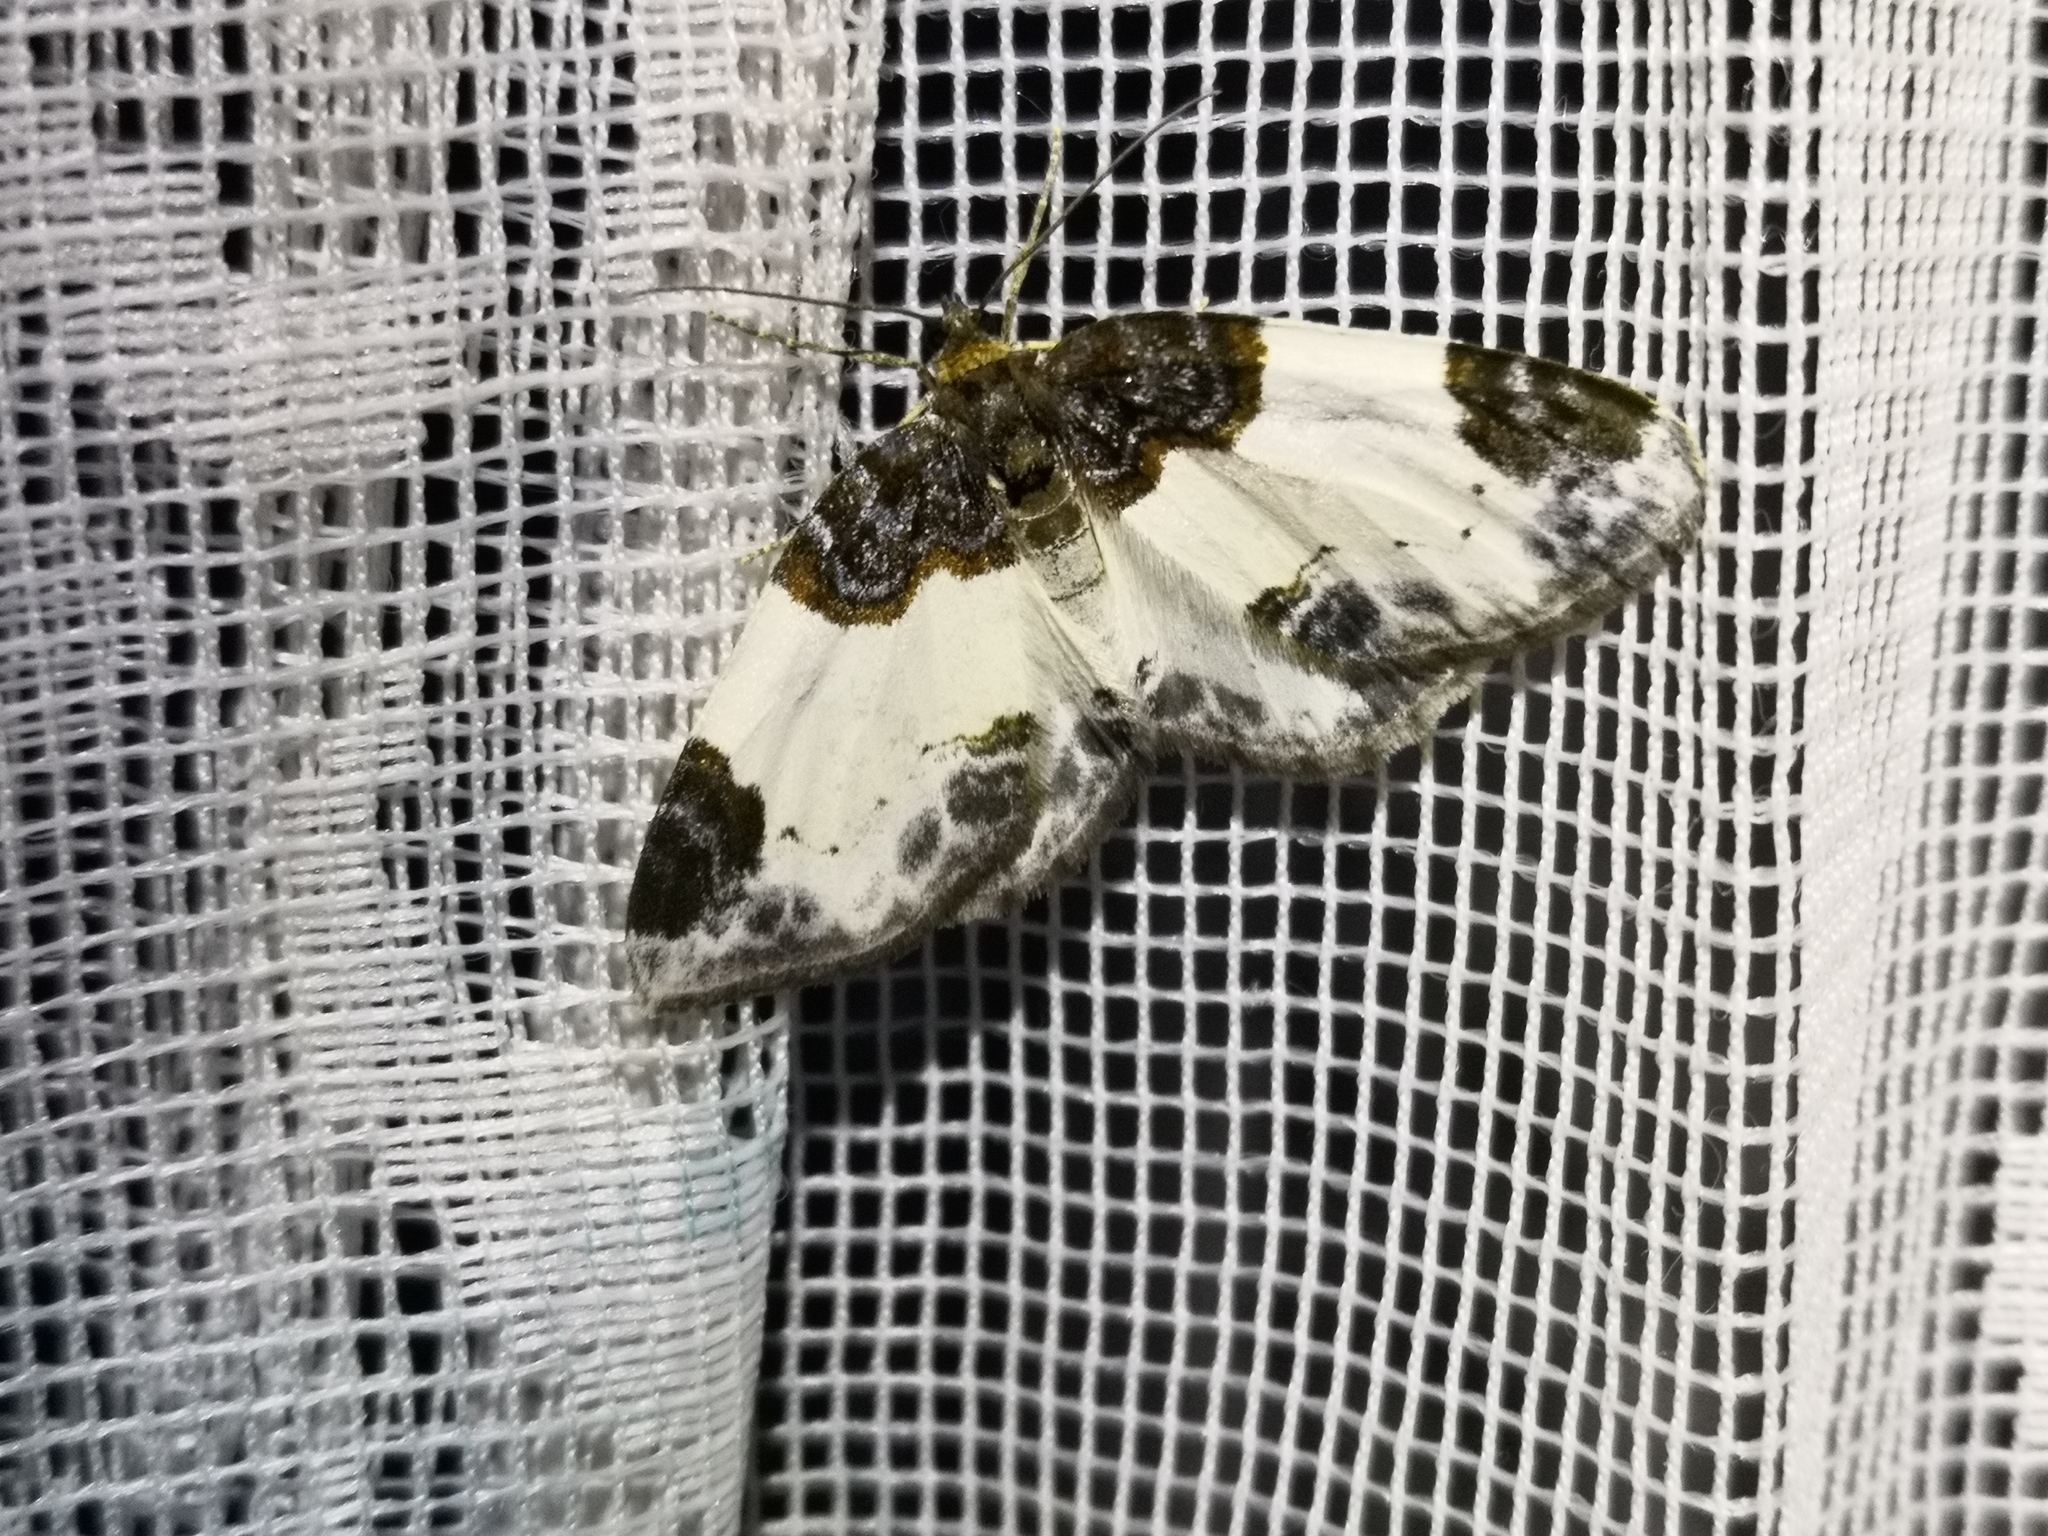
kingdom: Animalia
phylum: Arthropoda
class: Insecta
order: Lepidoptera
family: Geometridae
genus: Mesoleuca
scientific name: Mesoleuca albicillata
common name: Beautiful carpet
